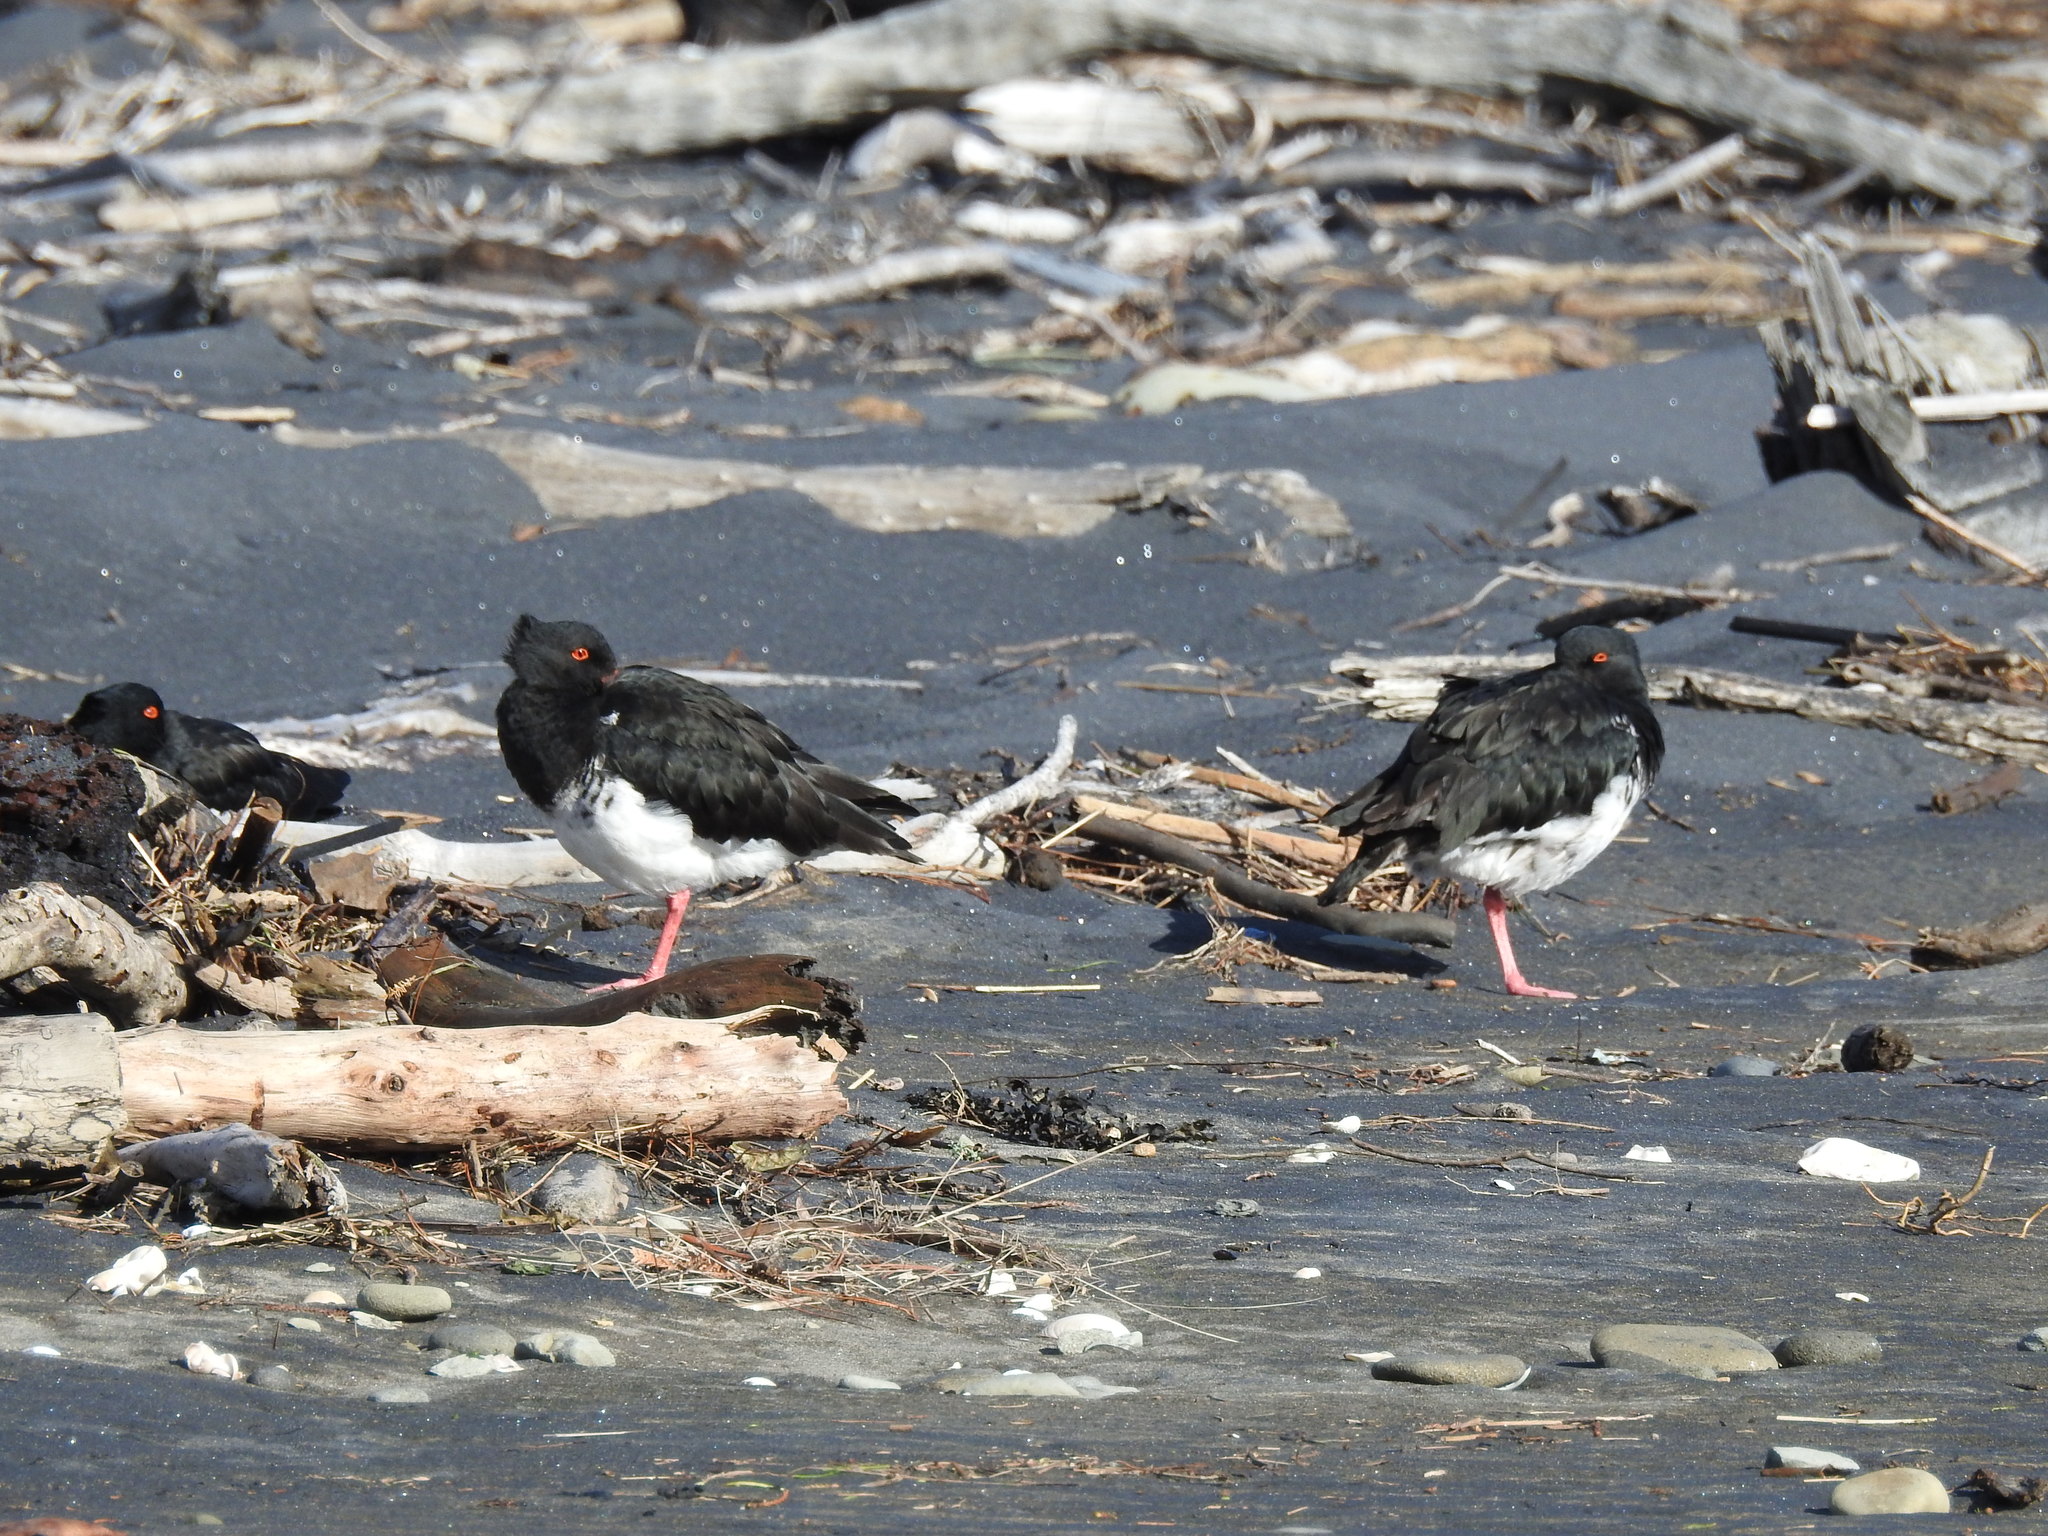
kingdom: Animalia
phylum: Chordata
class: Aves
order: Charadriiformes
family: Haematopodidae
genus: Haematopus
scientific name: Haematopus unicolor
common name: Variable oystercatcher
